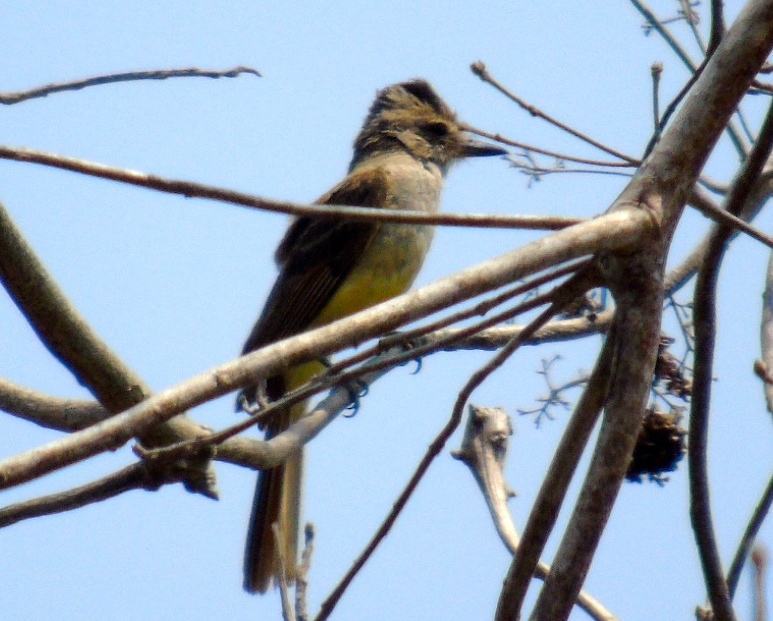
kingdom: Animalia
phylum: Chordata
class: Aves
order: Passeriformes
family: Tyrannidae
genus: Myiarchus
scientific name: Myiarchus
